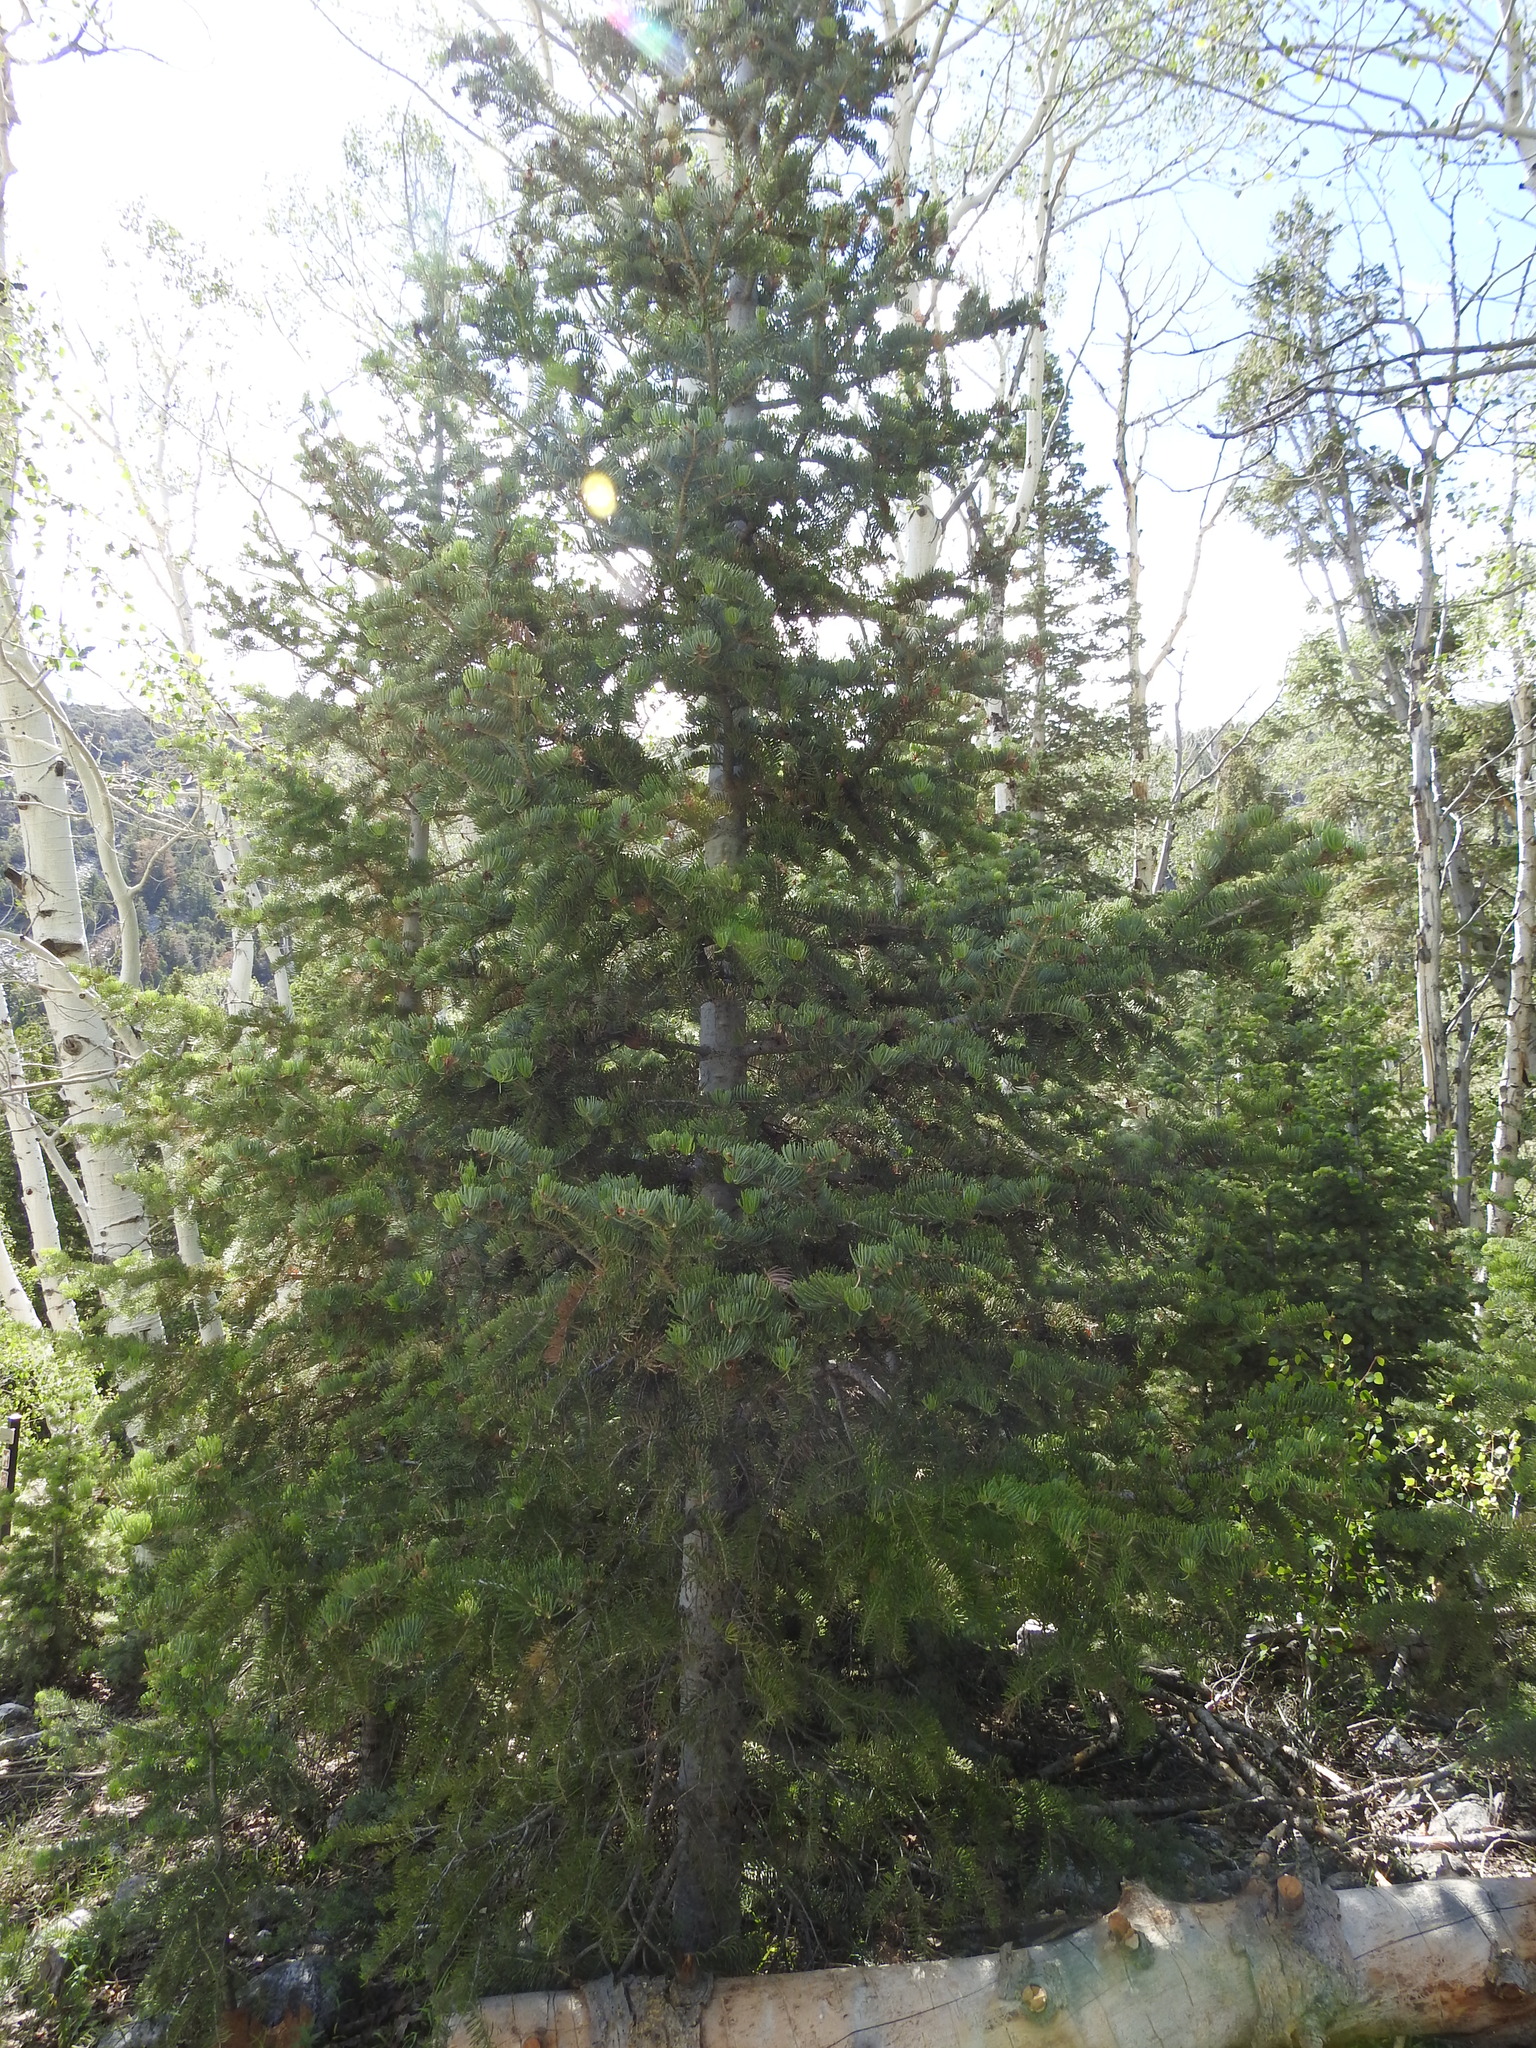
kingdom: Plantae
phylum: Tracheophyta
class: Pinopsida
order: Pinales
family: Pinaceae
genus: Abies
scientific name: Abies concolor
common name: Colorado fir
